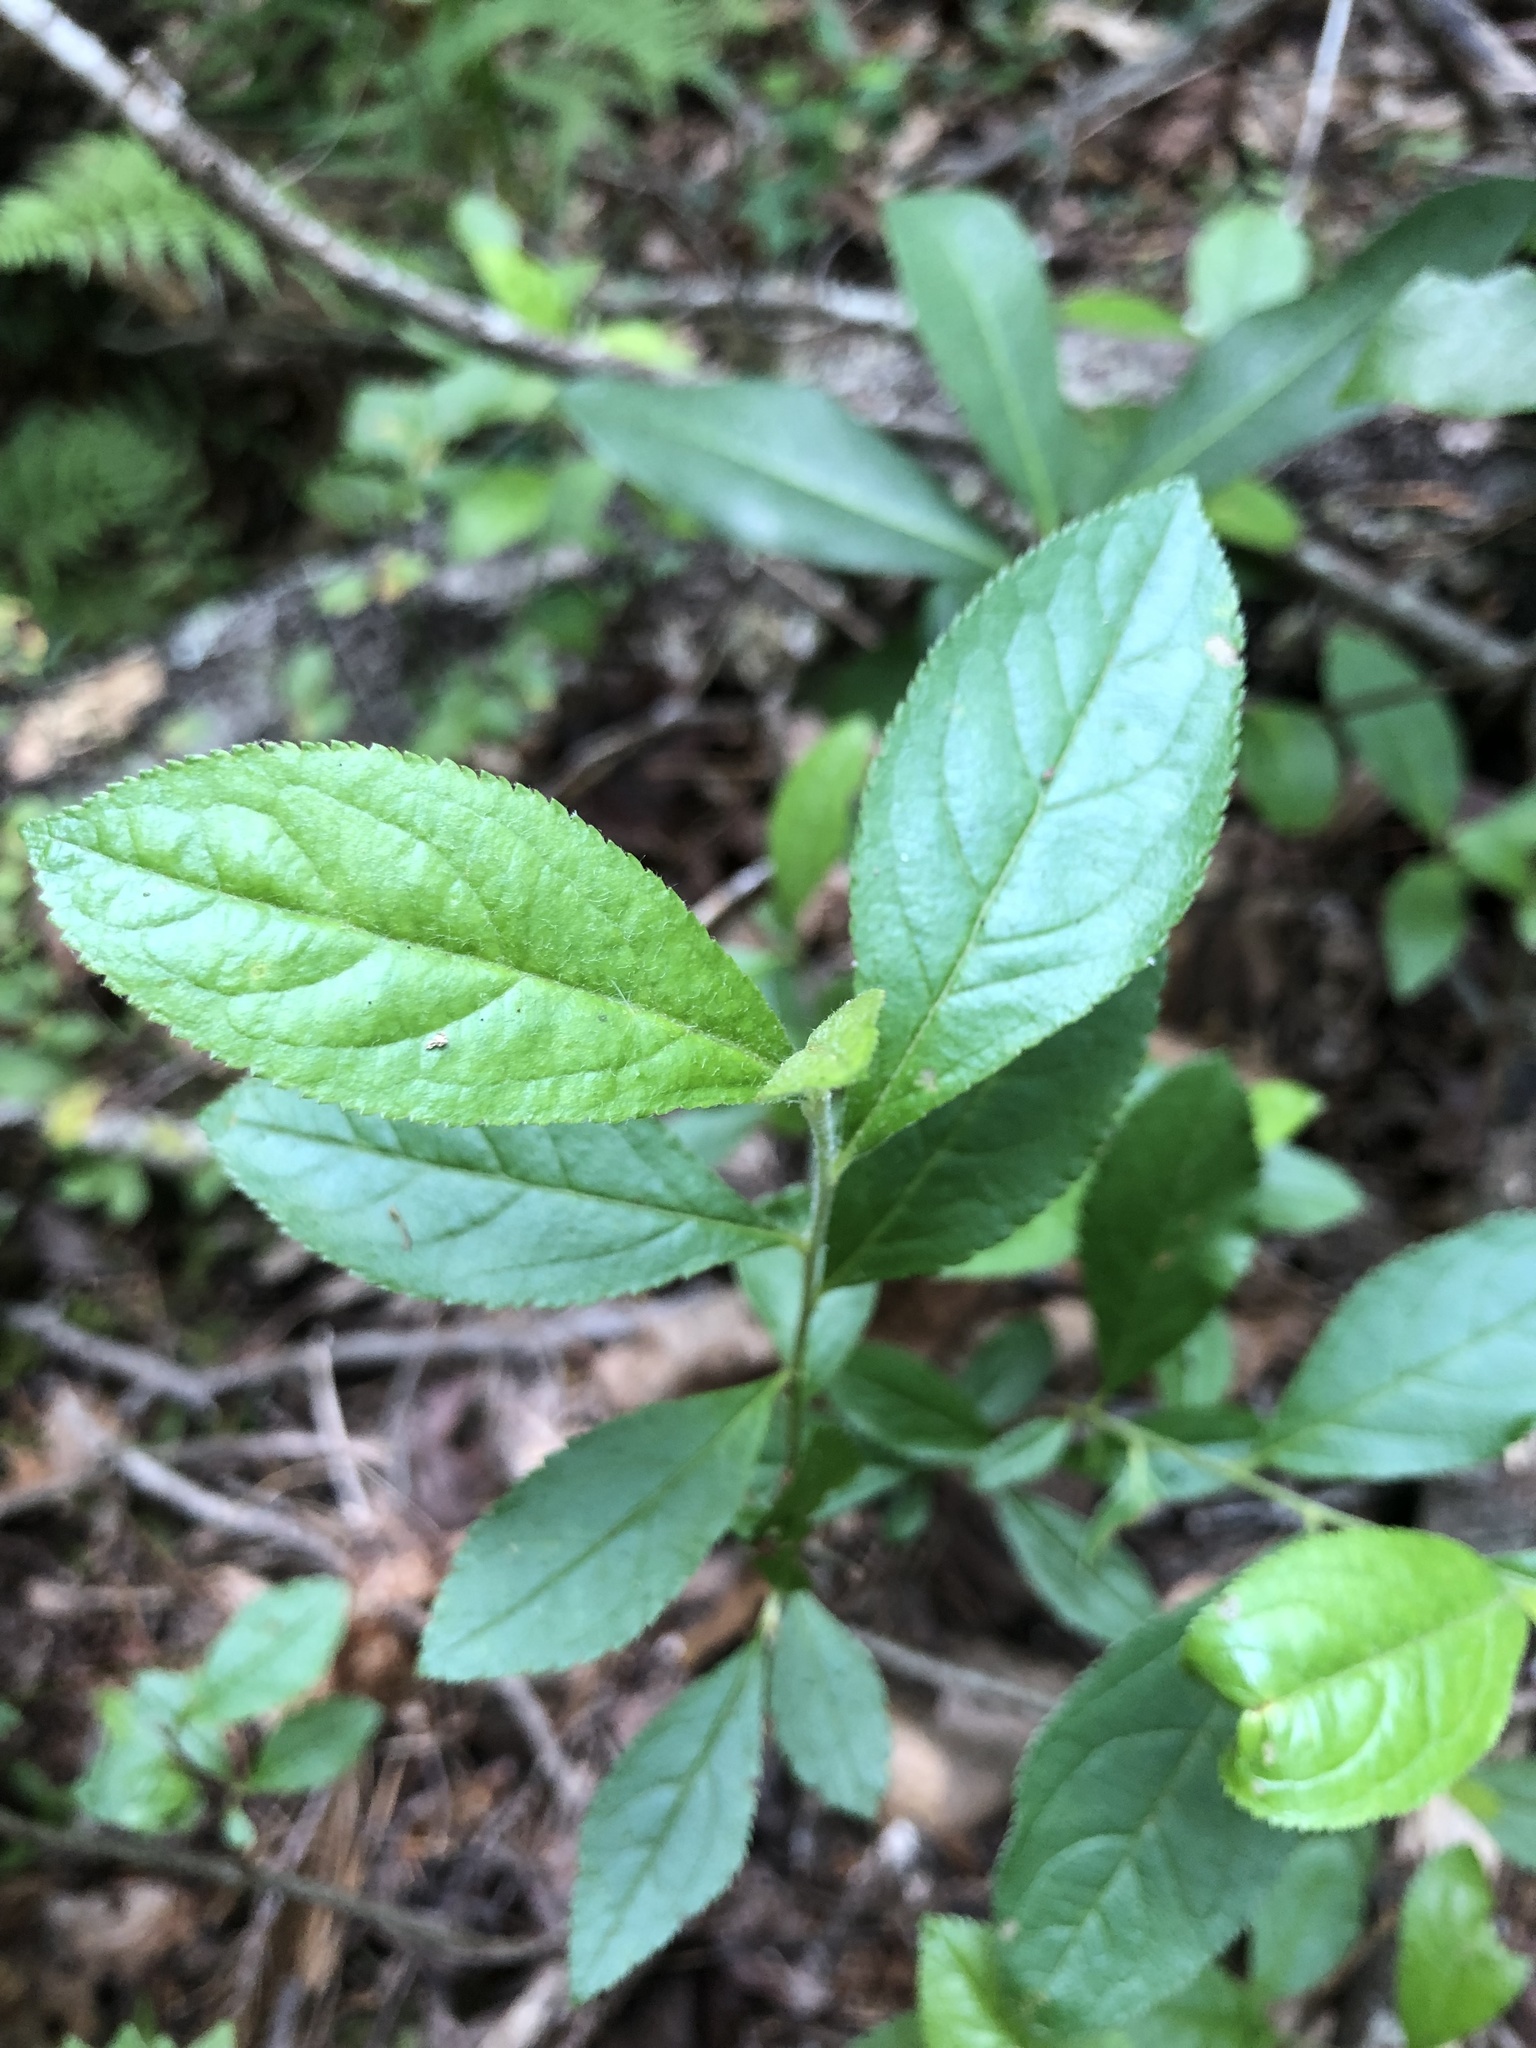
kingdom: Plantae
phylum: Tracheophyta
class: Magnoliopsida
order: Rosales
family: Rosaceae
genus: Aronia
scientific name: Aronia arbutifolia
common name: Red chokeberry
